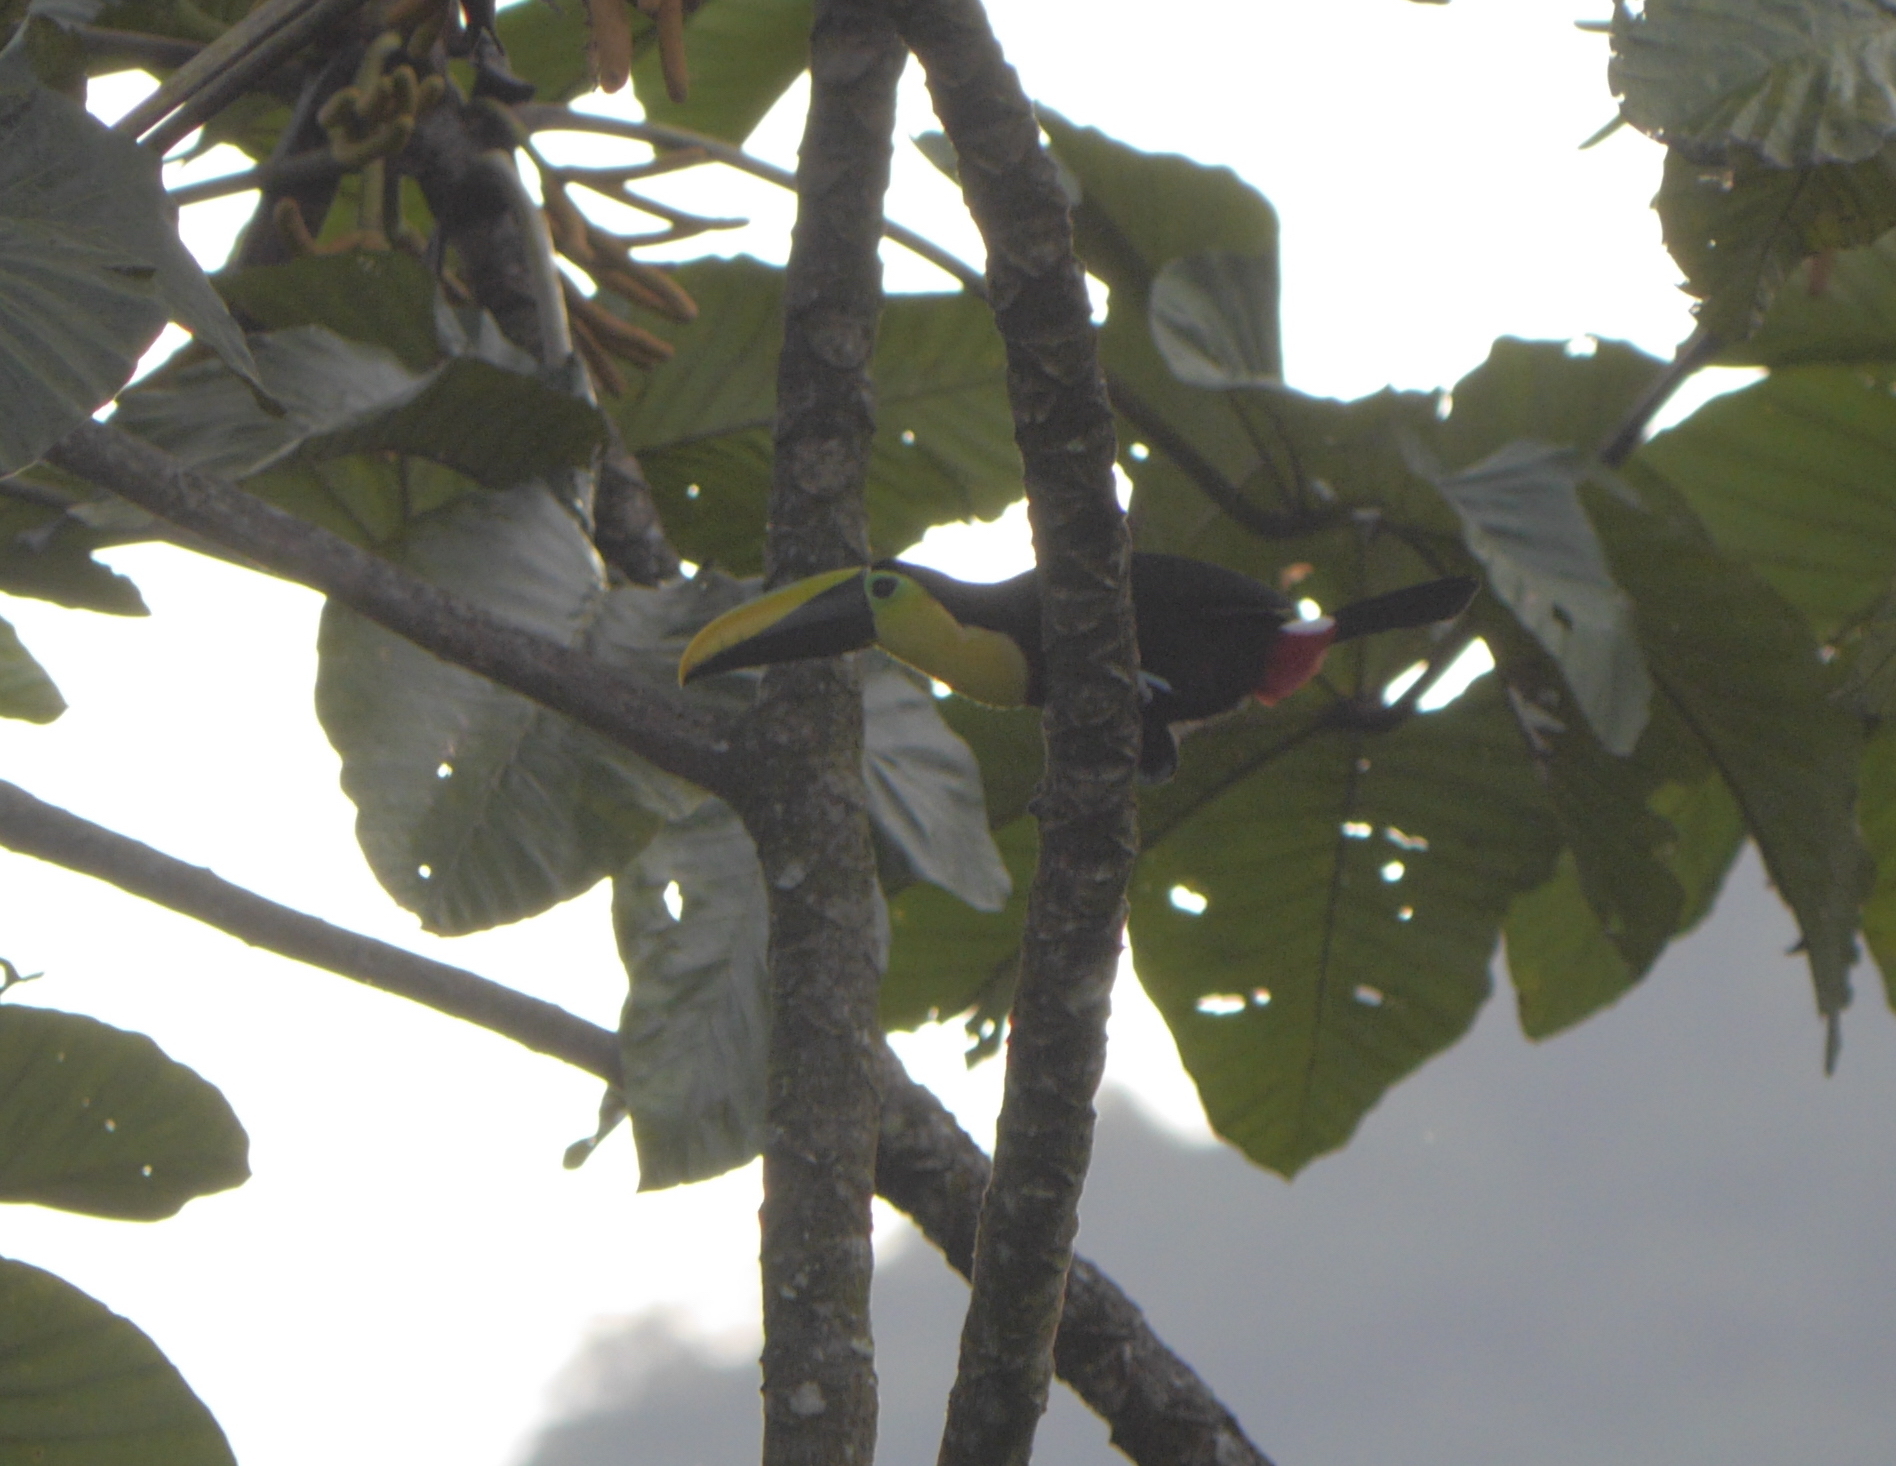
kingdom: Animalia
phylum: Chordata
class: Aves
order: Piciformes
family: Ramphastidae
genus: Ramphastos
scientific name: Ramphastos brevis
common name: Choco toucan
